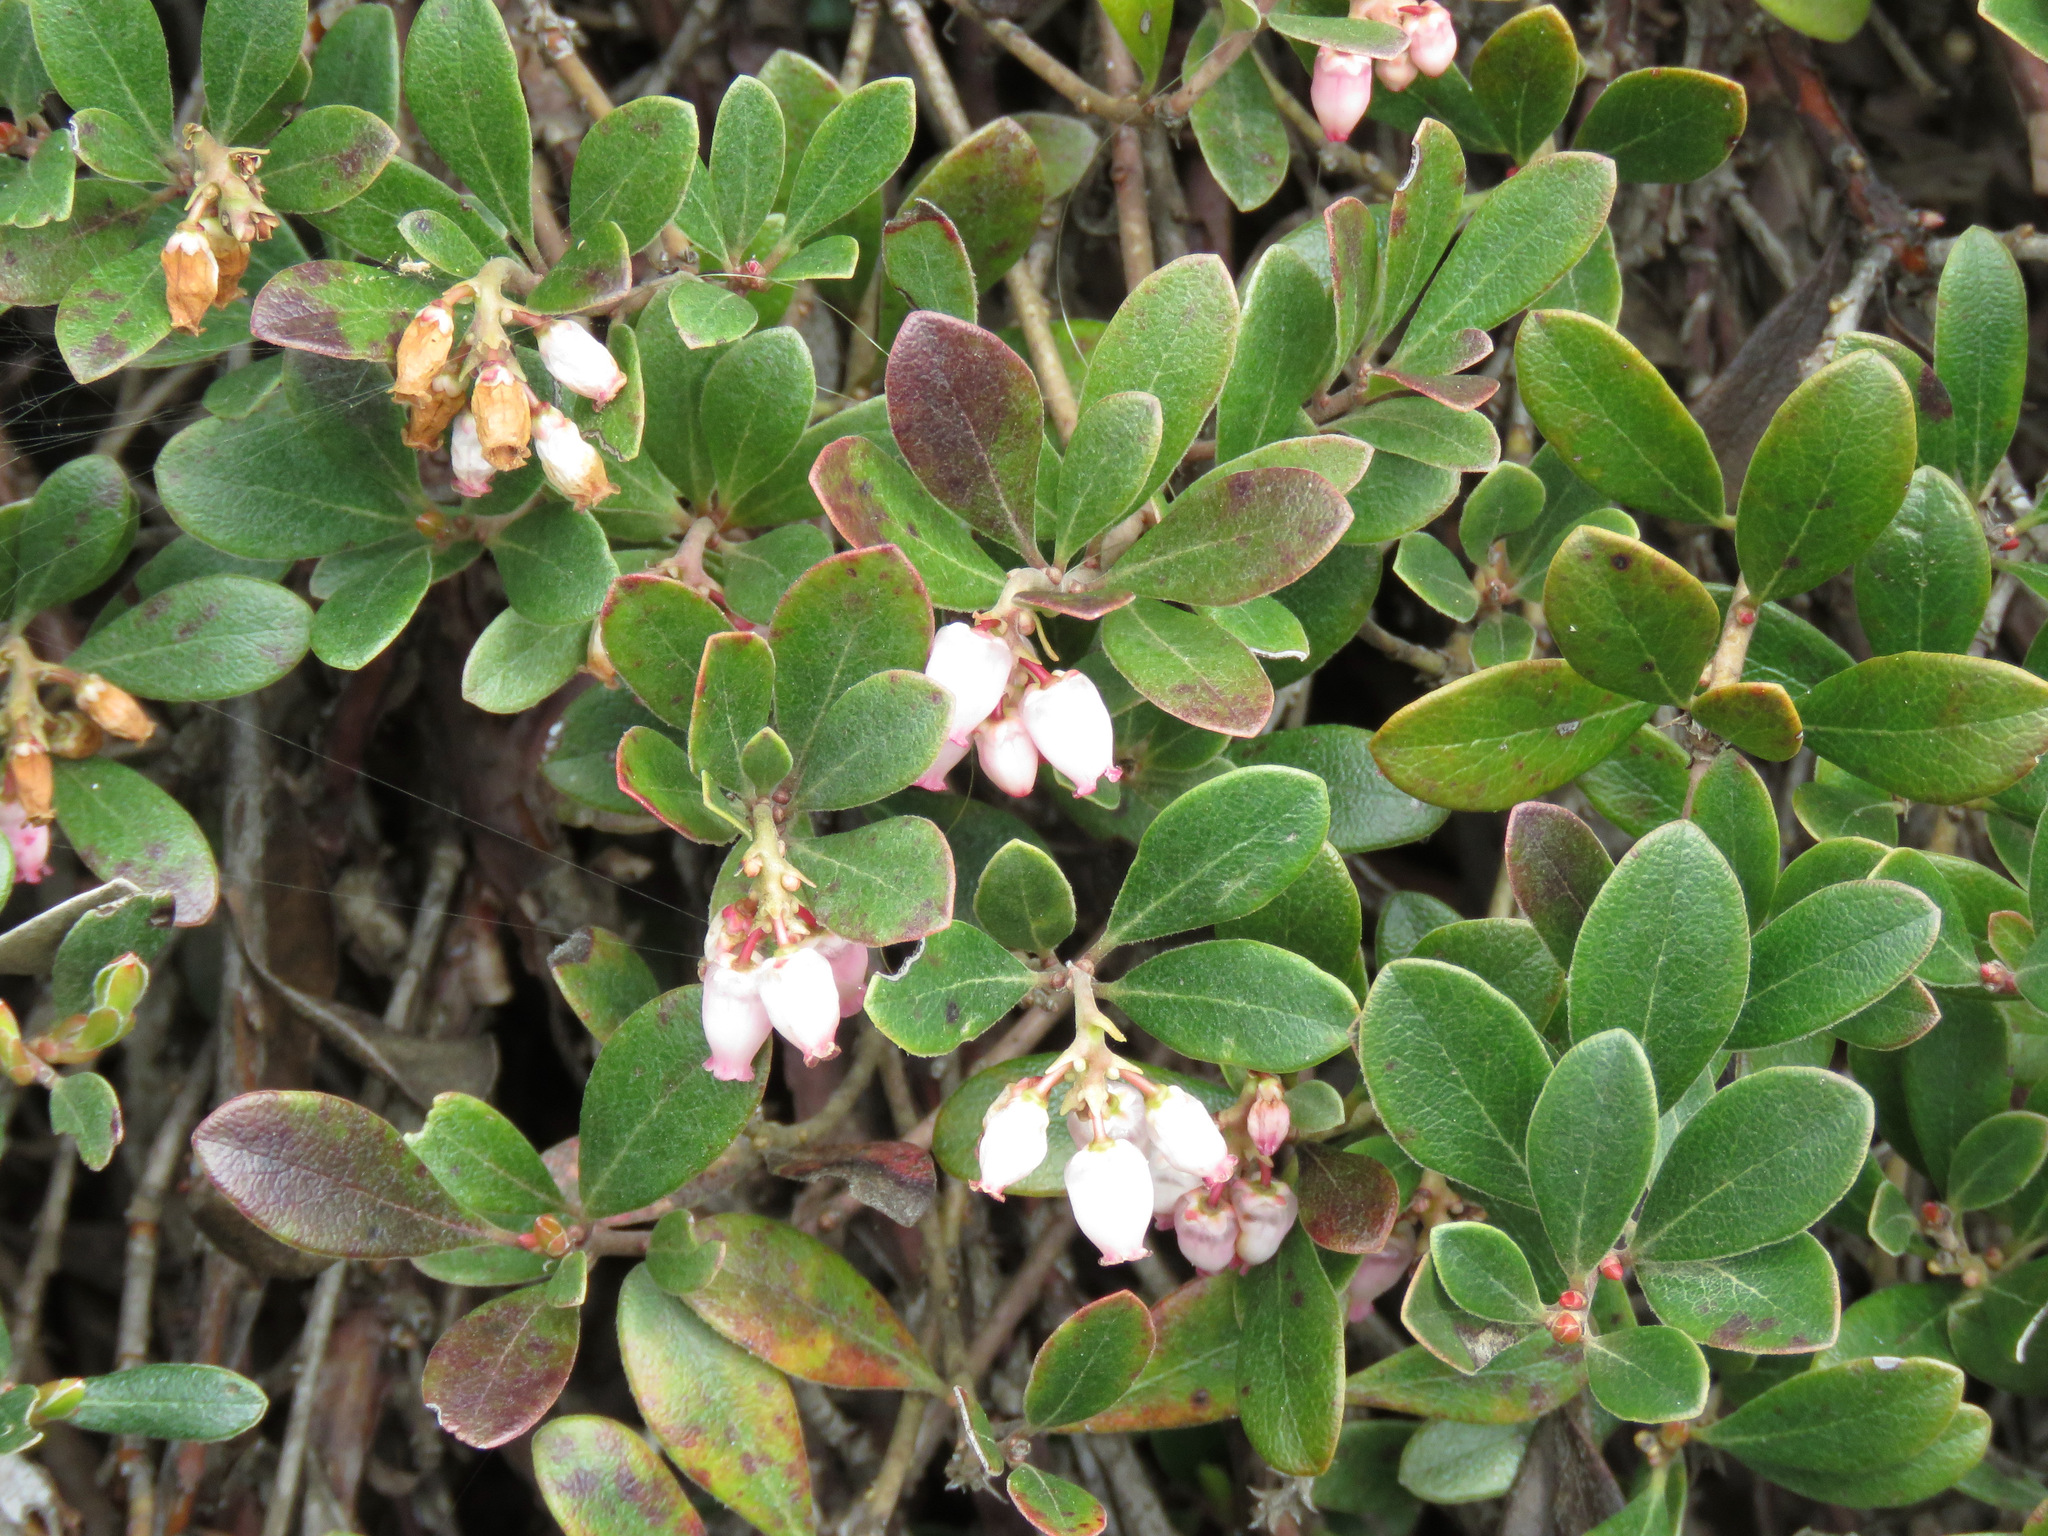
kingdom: Plantae
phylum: Tracheophyta
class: Magnoliopsida
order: Ericales
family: Ericaceae
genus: Arctostaphylos
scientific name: Arctostaphylos uva-ursi
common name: Bearberry
